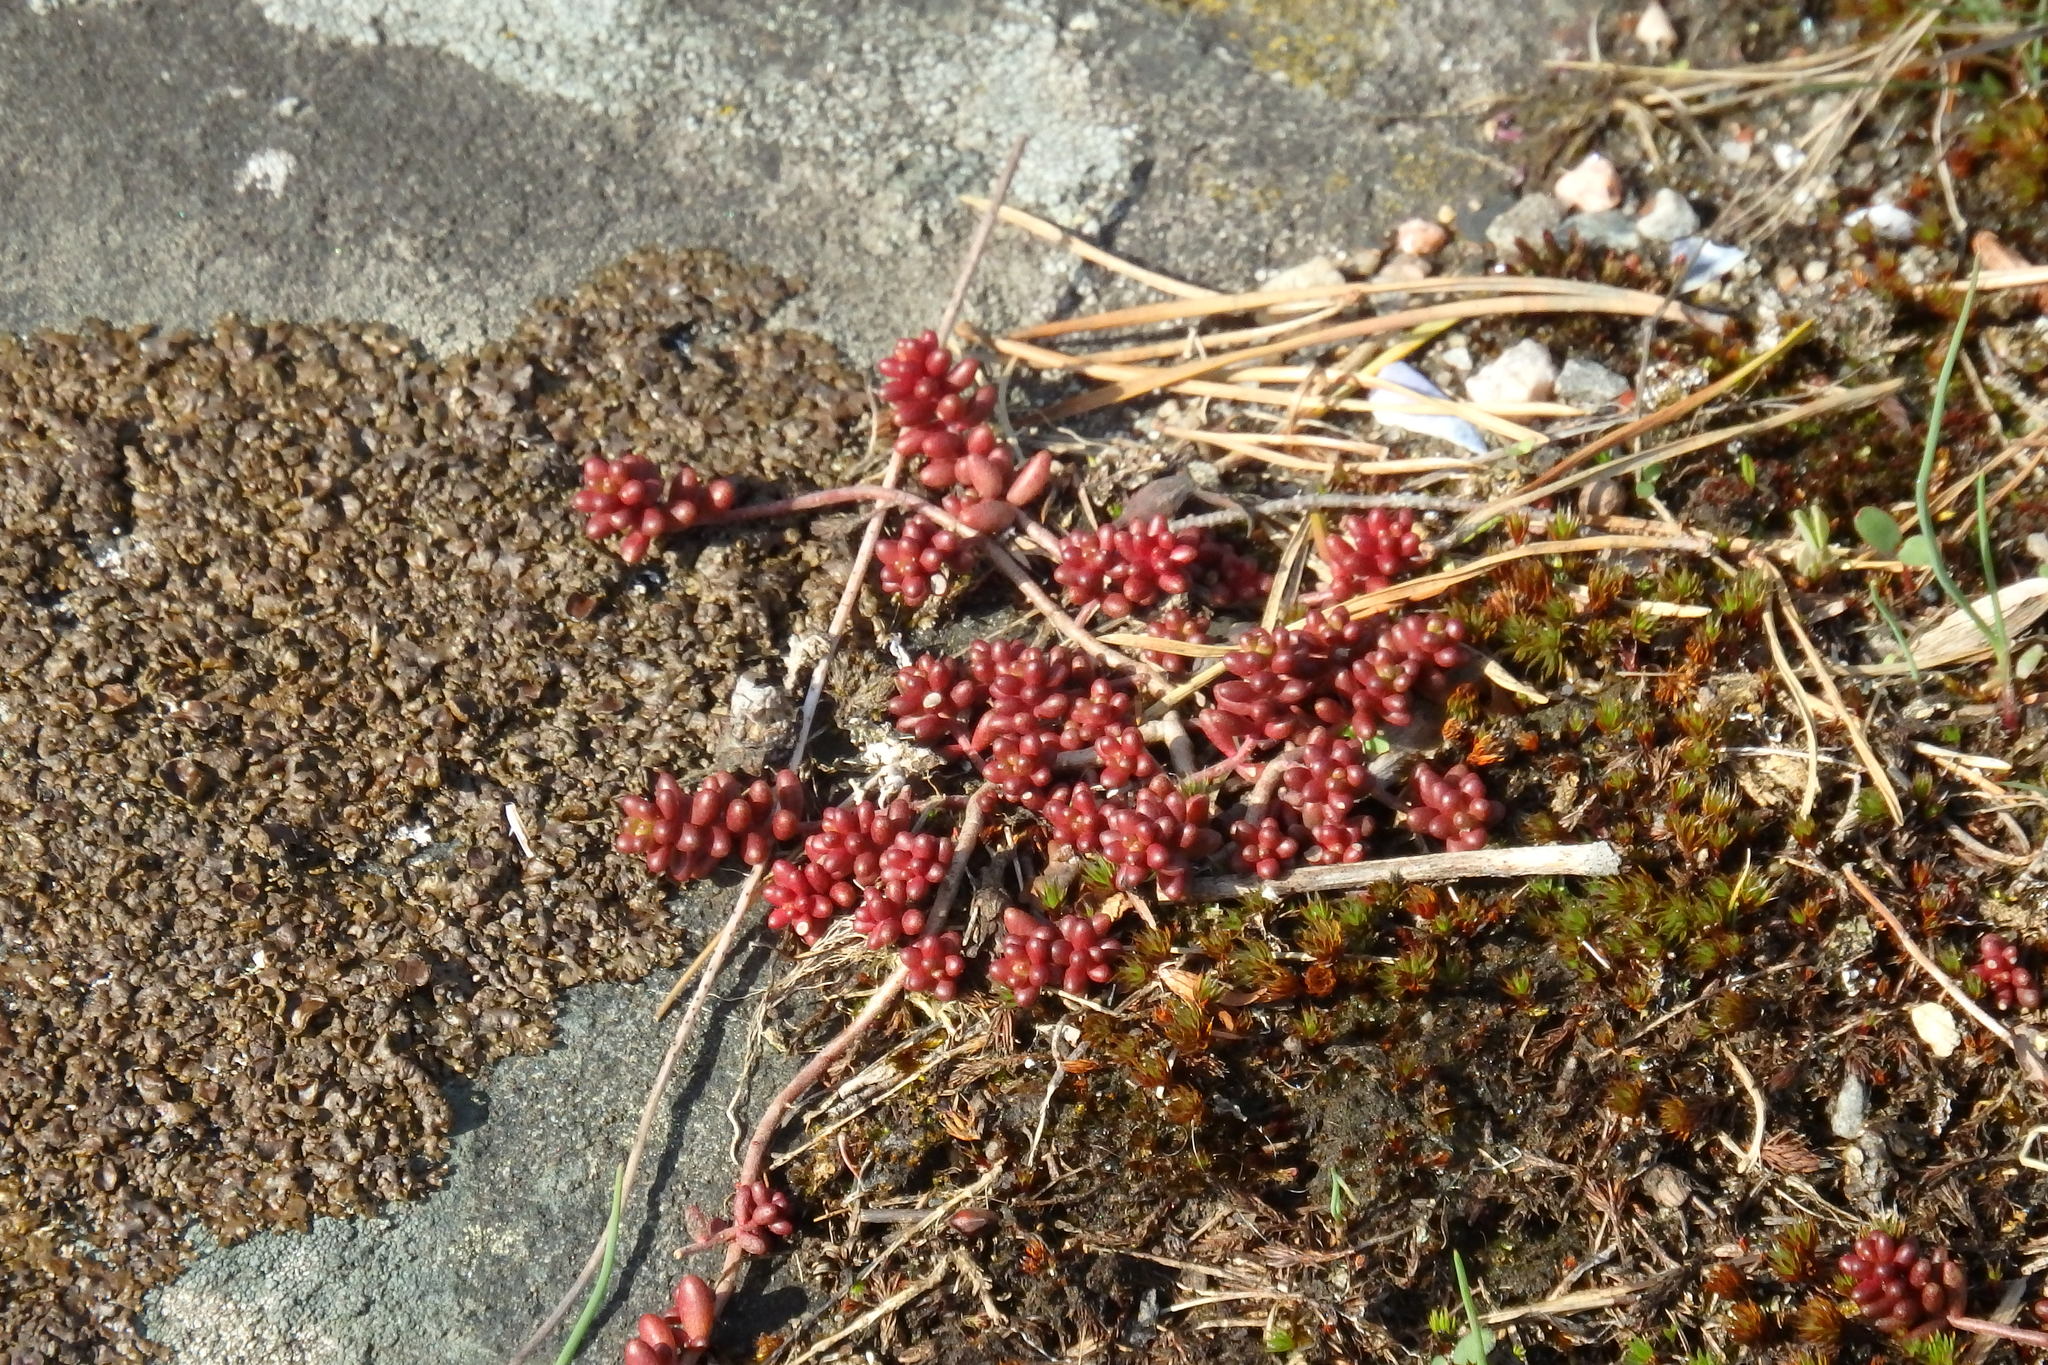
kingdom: Plantae
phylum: Tracheophyta
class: Magnoliopsida
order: Saxifragales
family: Crassulaceae
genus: Sedum
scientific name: Sedum album
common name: White stonecrop
